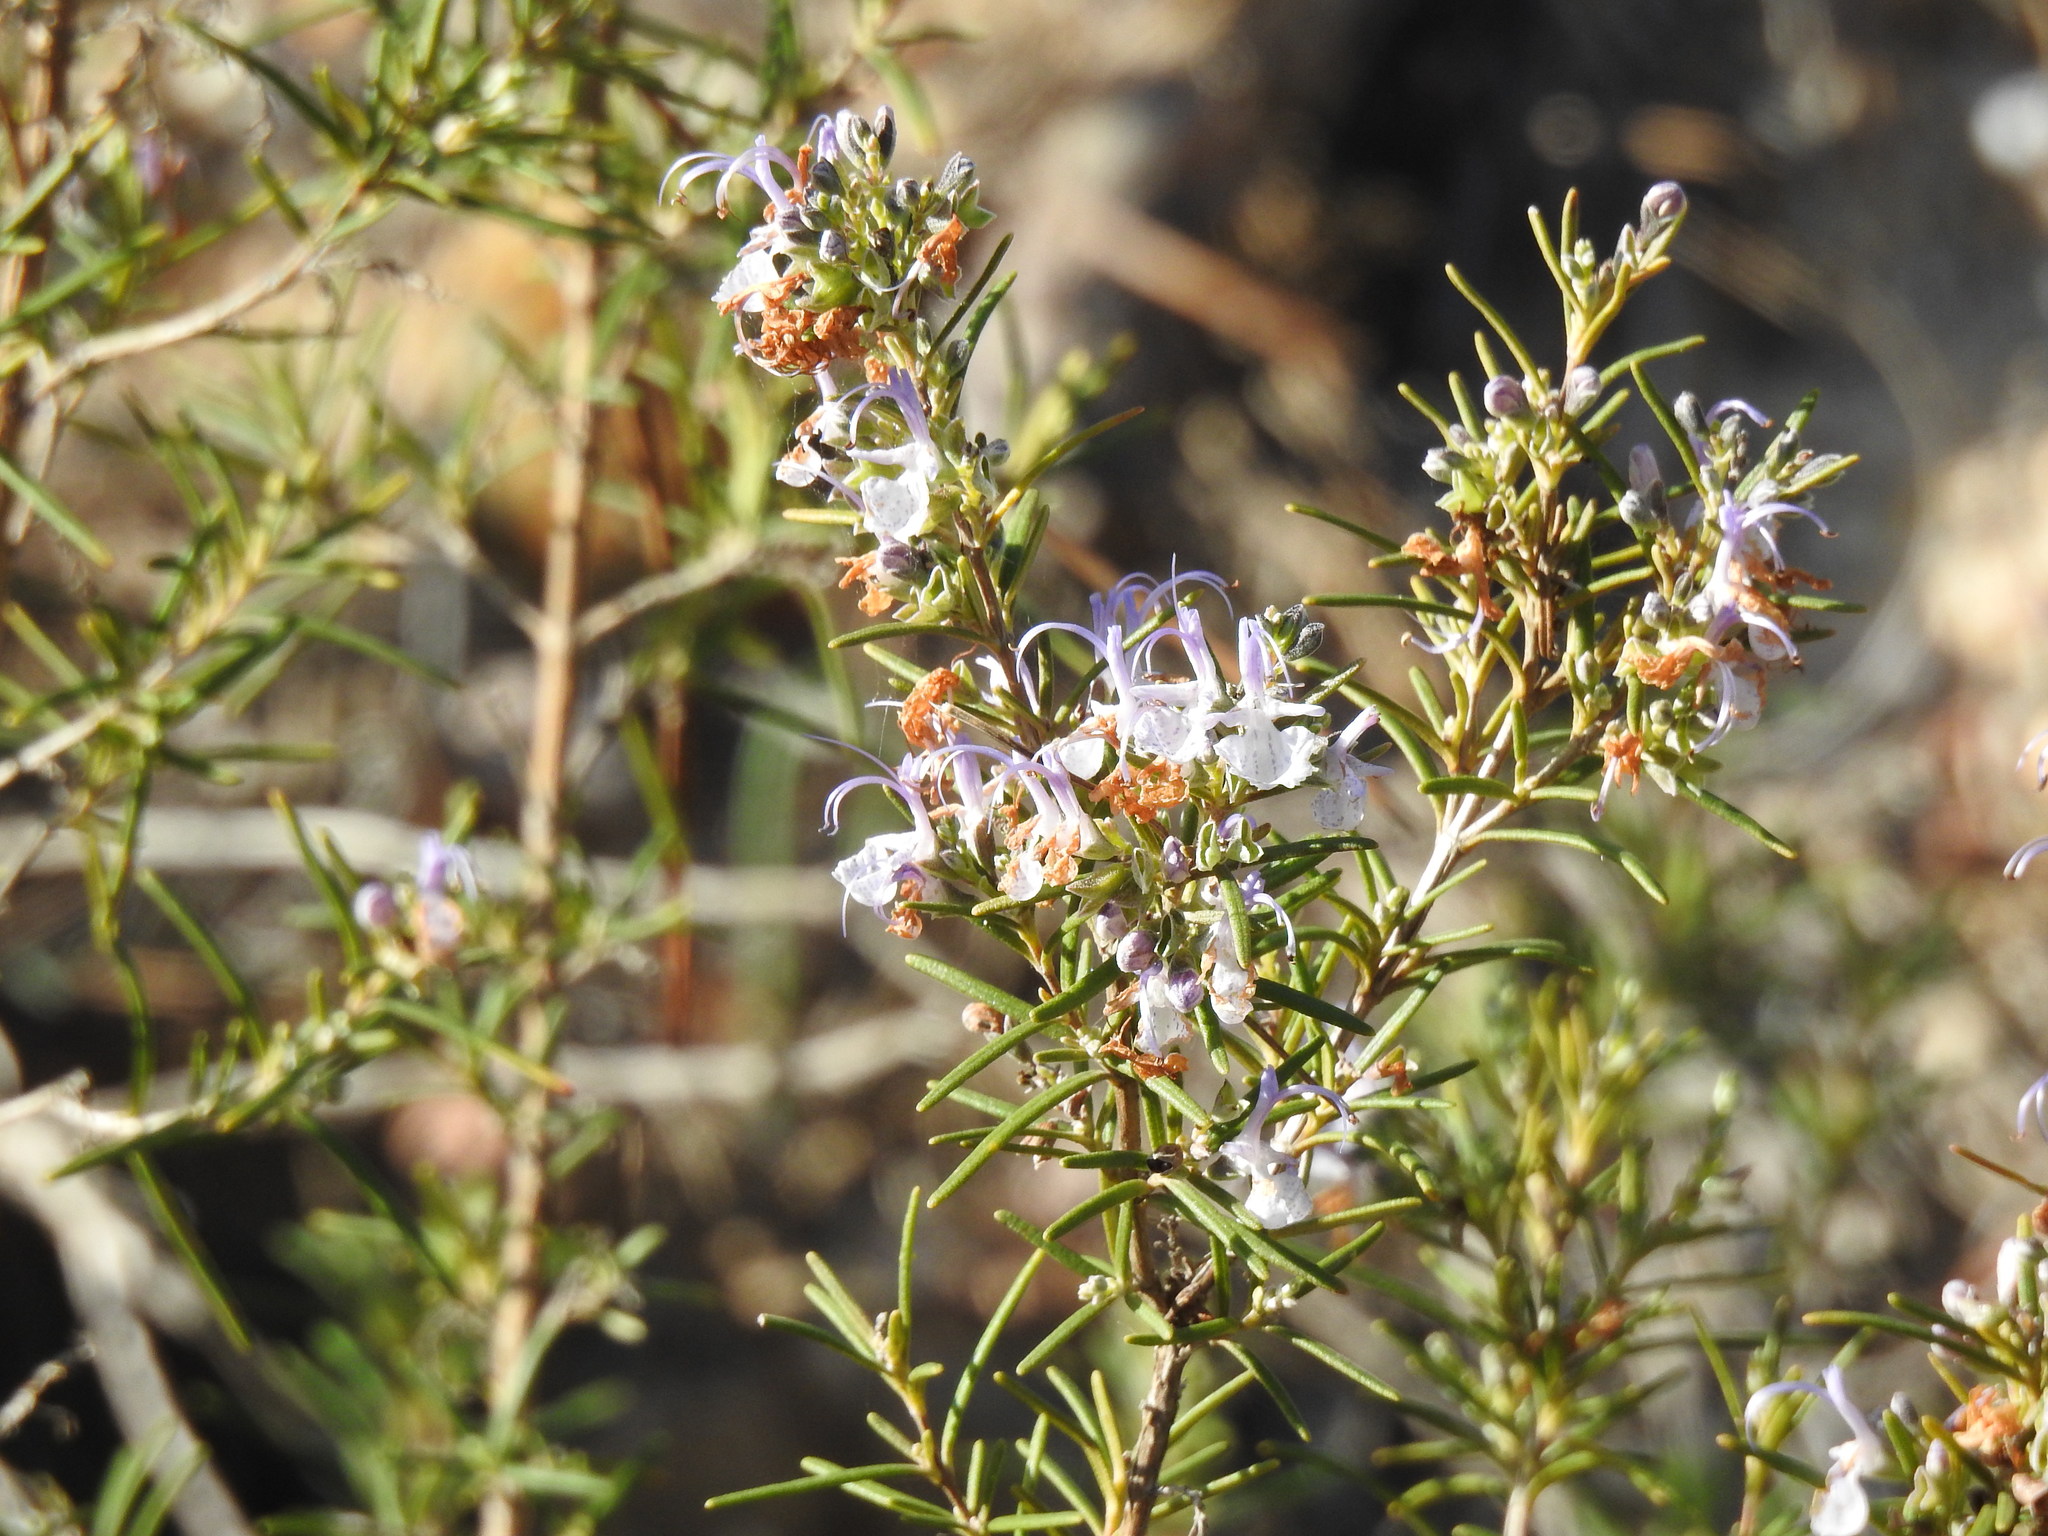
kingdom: Plantae
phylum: Tracheophyta
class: Magnoliopsida
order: Lamiales
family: Lamiaceae
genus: Salvia
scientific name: Salvia rosmarinus
